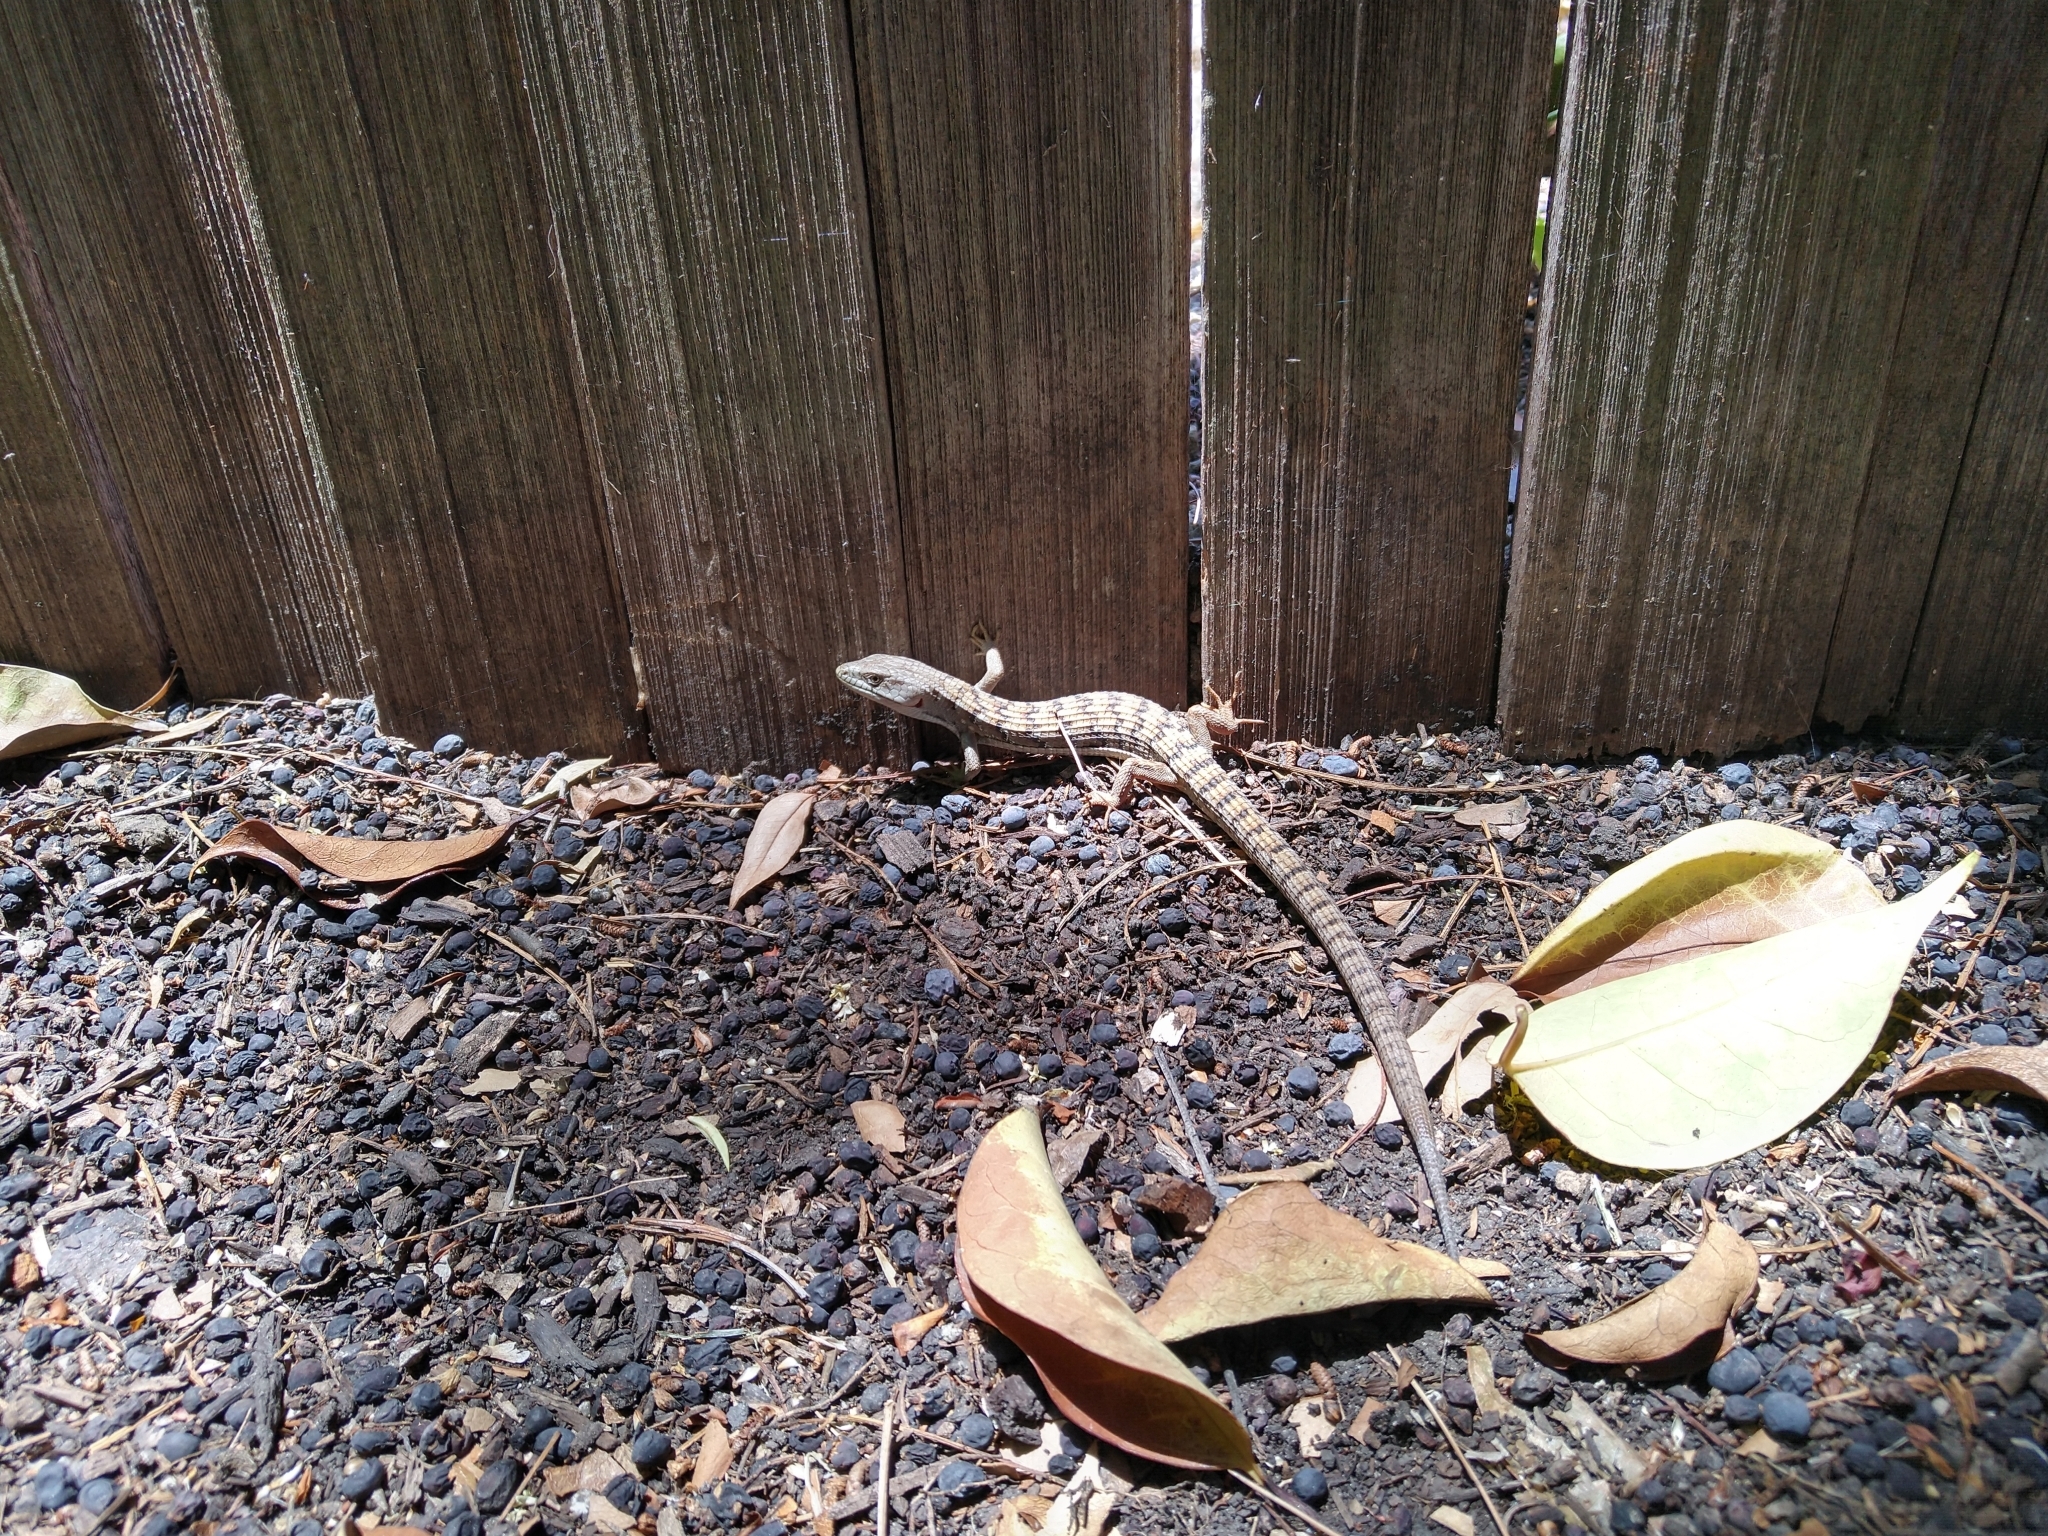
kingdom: Animalia
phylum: Chordata
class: Squamata
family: Anguidae
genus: Elgaria
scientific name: Elgaria multicarinata
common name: Southern alligator lizard
